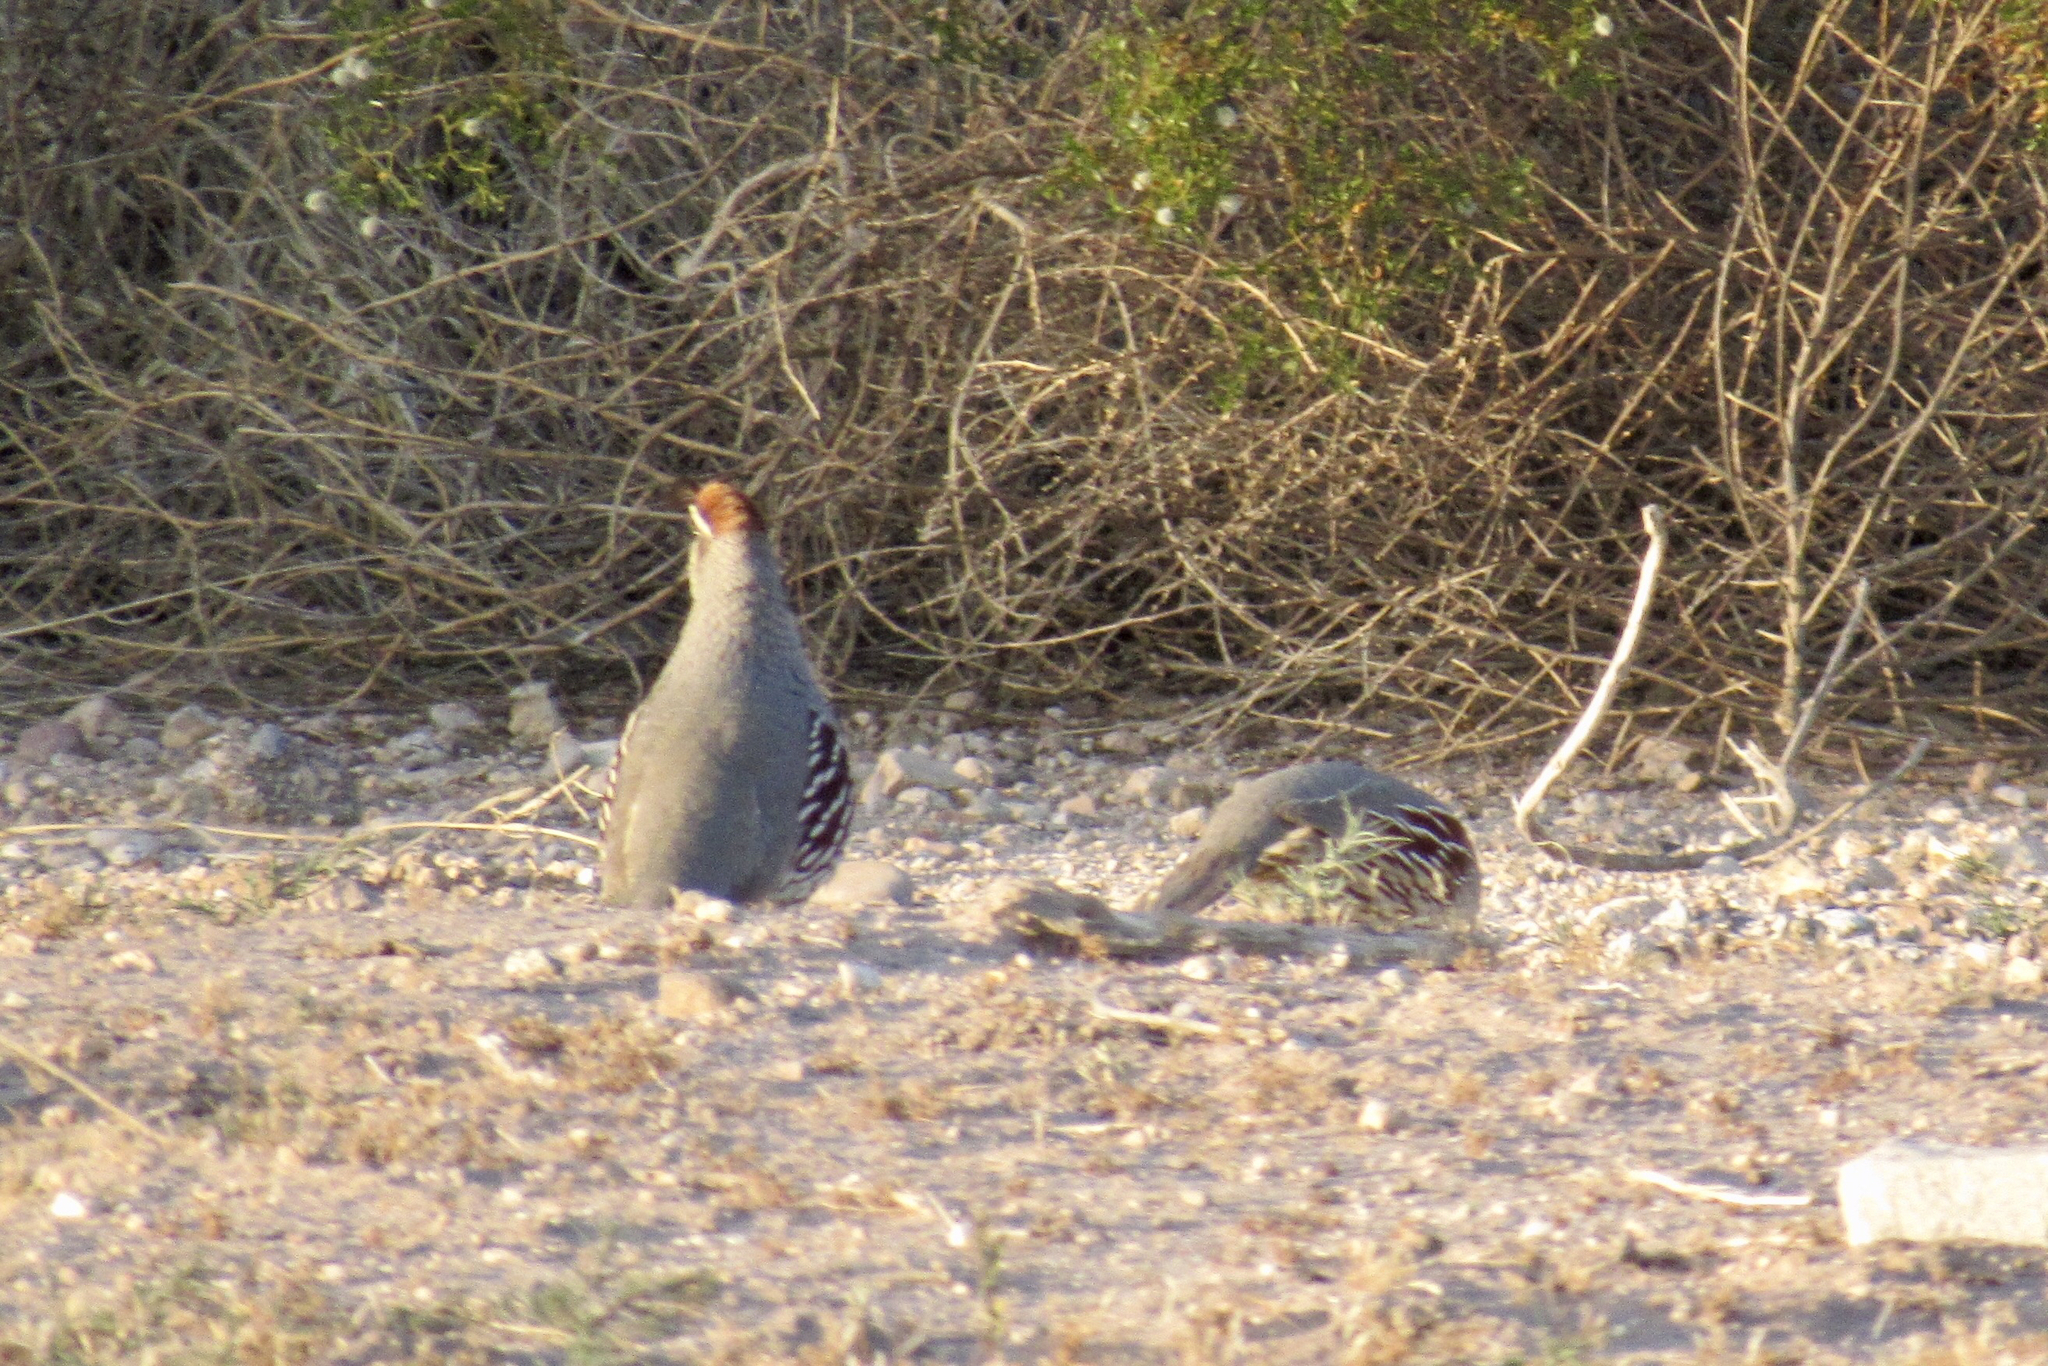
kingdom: Animalia
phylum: Chordata
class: Aves
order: Galliformes
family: Odontophoridae
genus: Callipepla
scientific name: Callipepla gambelii
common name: Gambel's quail
